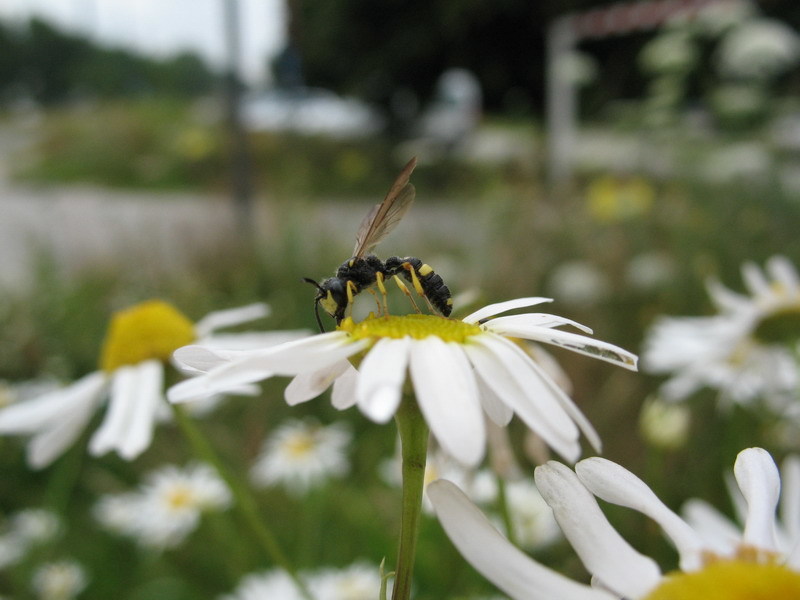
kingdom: Animalia
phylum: Arthropoda
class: Insecta
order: Hymenoptera
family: Crabronidae
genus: Cerceris
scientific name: Cerceris rybyensis
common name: Ornate tailed digger wasp
